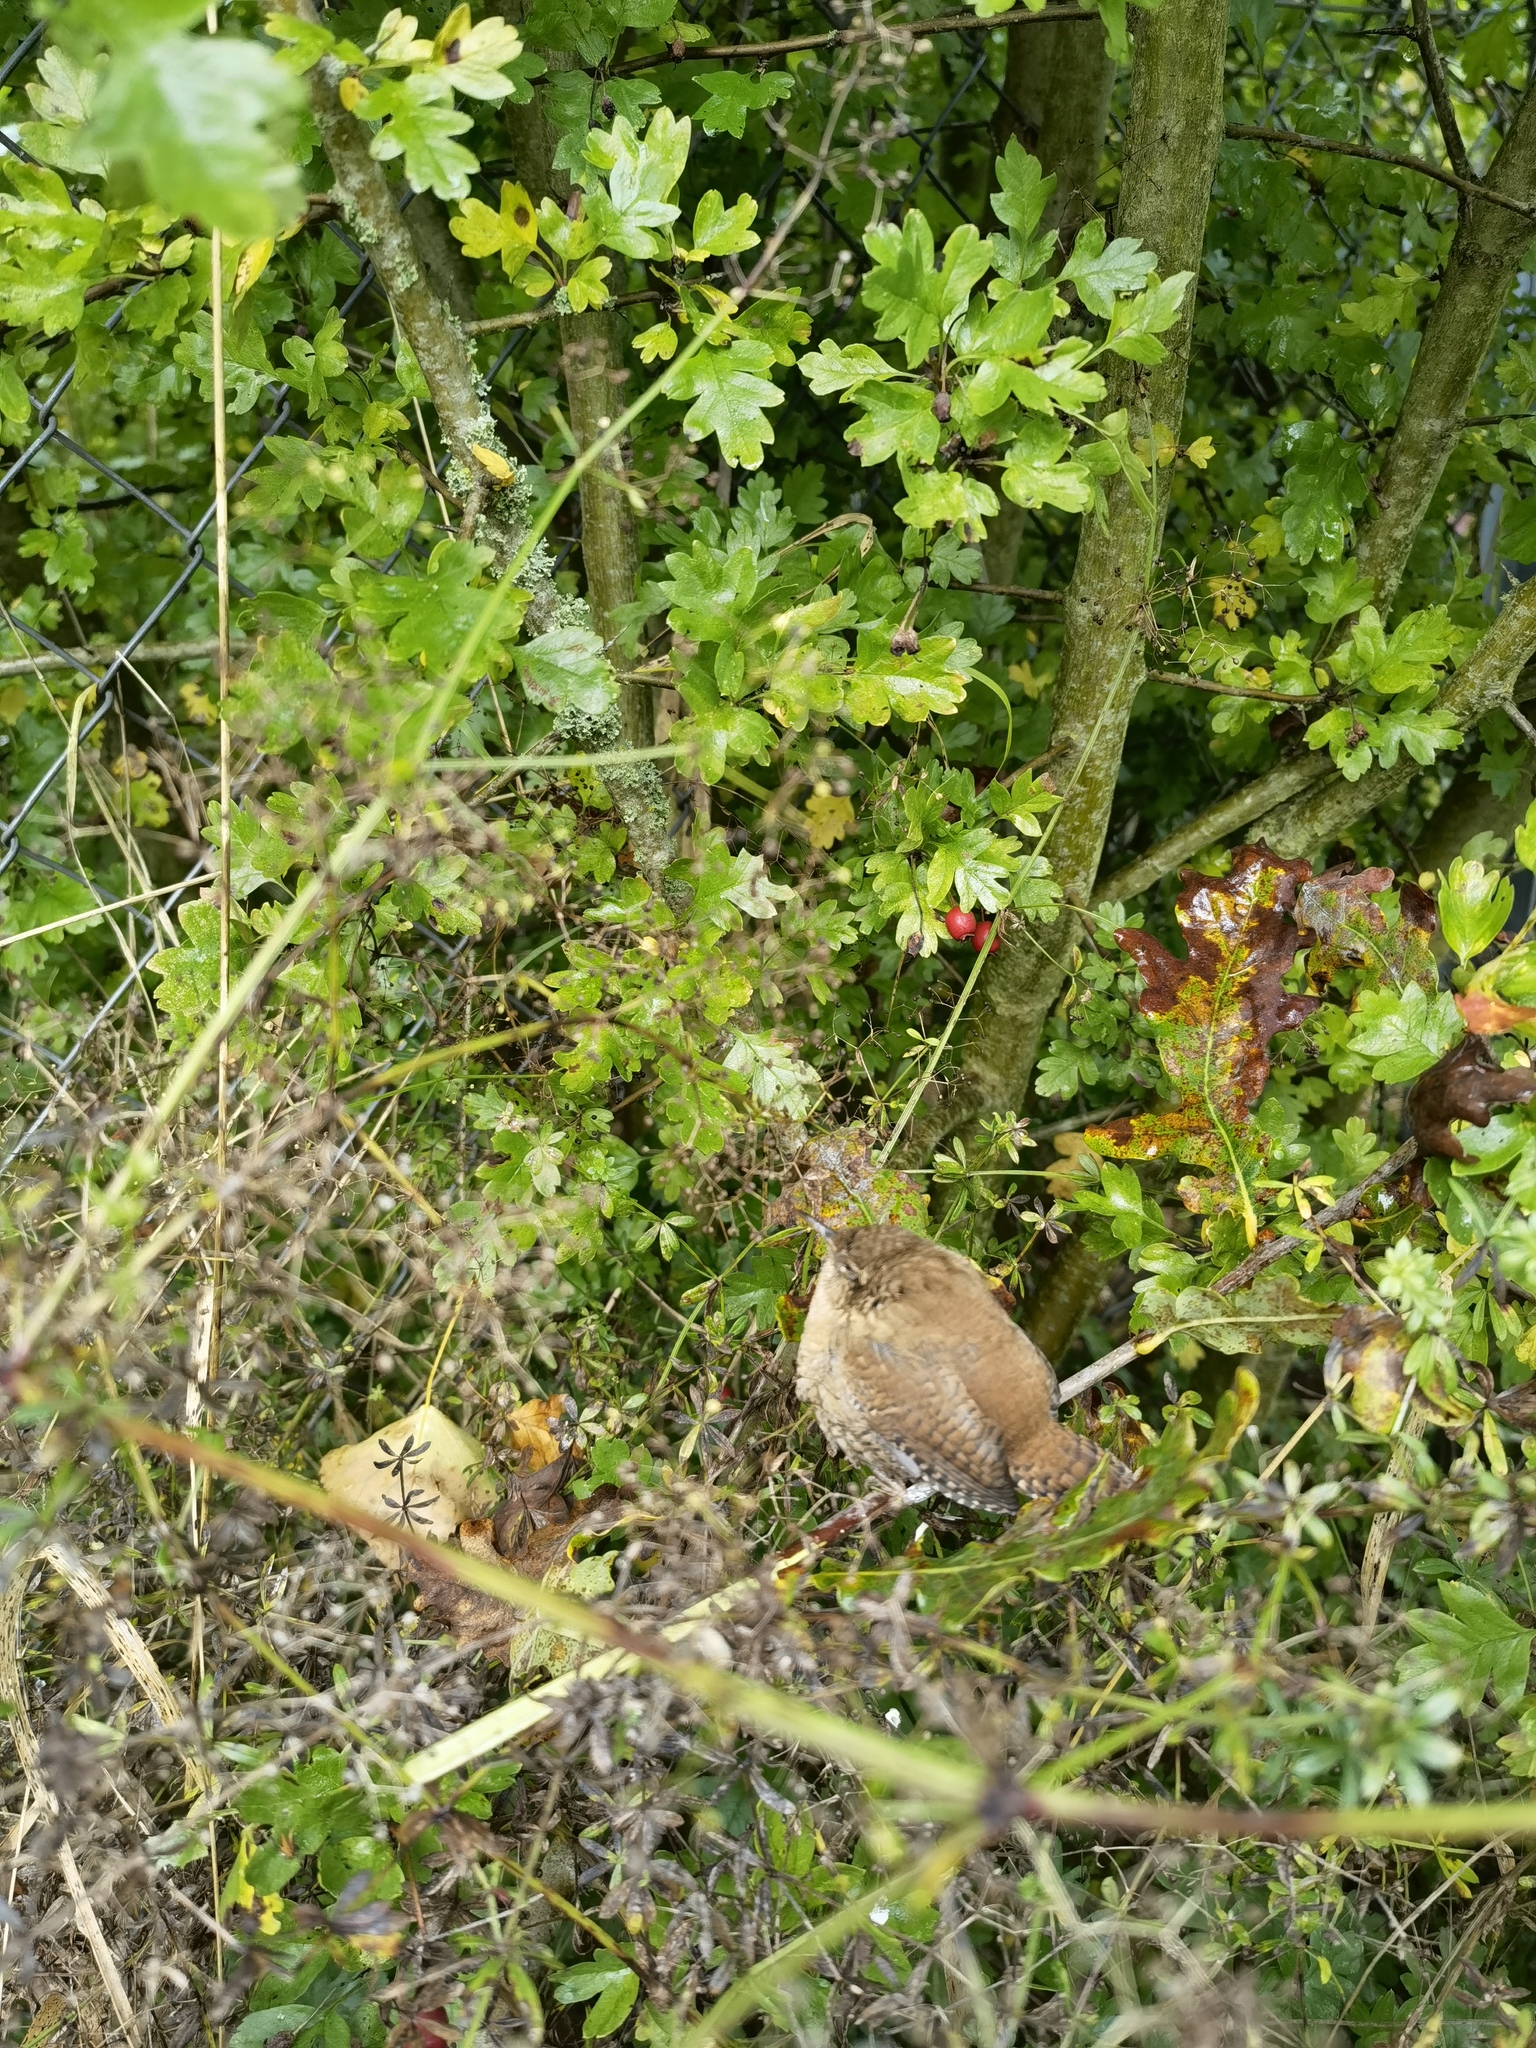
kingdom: Animalia
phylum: Chordata
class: Aves
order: Passeriformes
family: Troglodytidae
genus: Troglodytes
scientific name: Troglodytes troglodytes
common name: Eurasian wren
